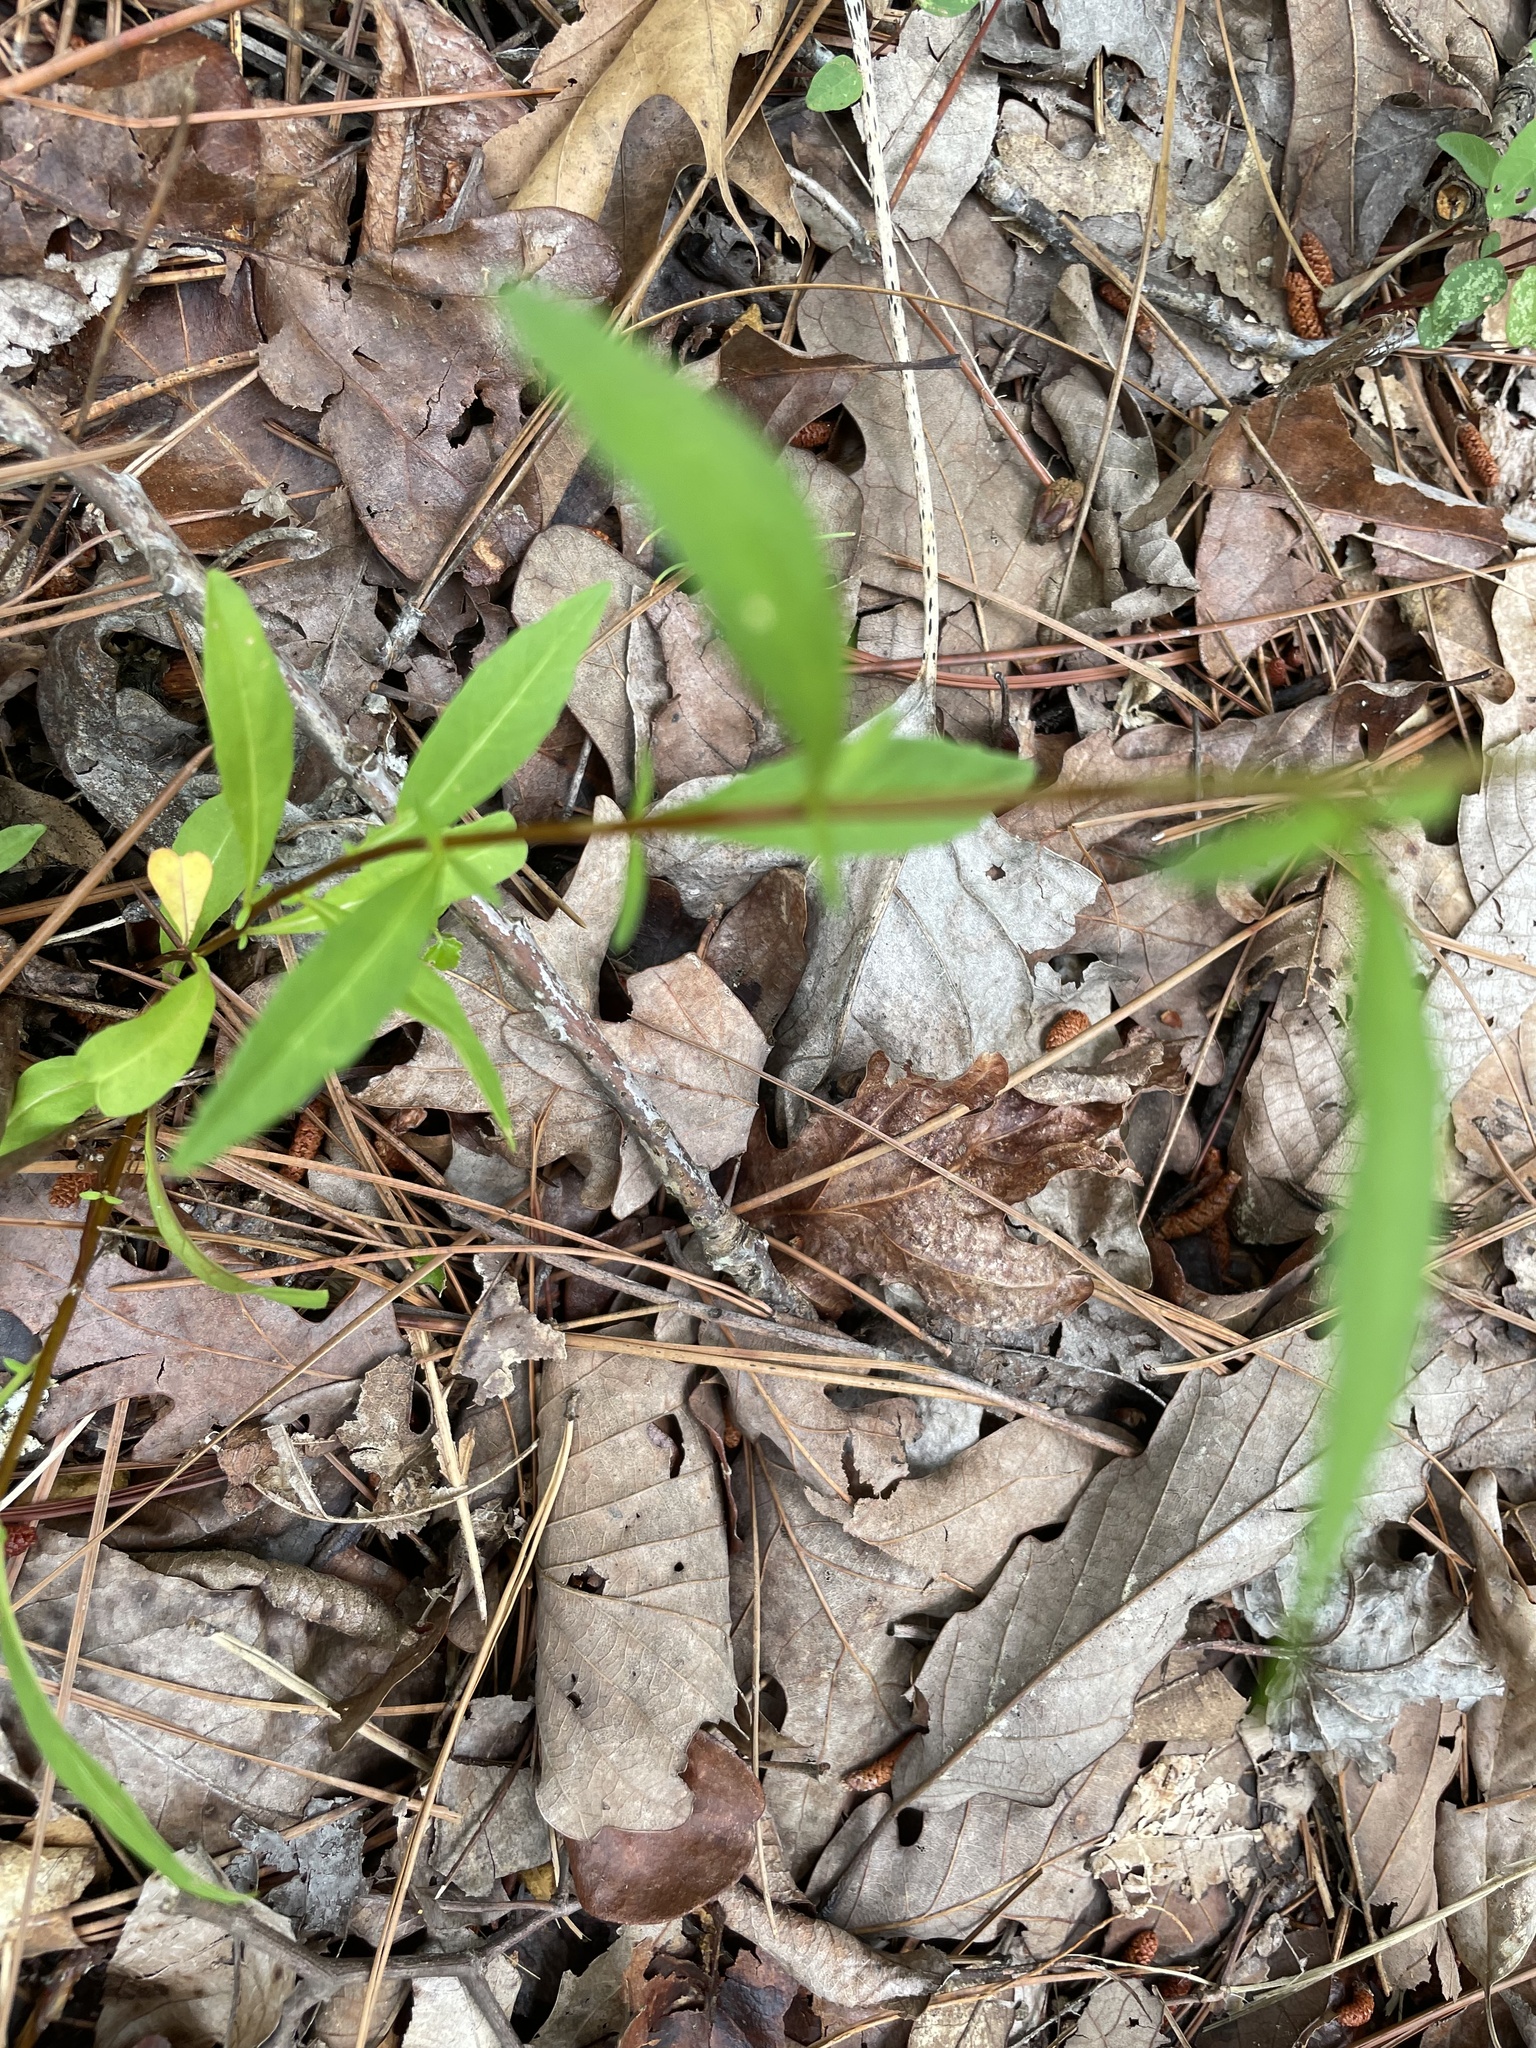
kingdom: Plantae
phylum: Tracheophyta
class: Magnoliopsida
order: Asterales
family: Asteraceae
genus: Eupatorium
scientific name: Eupatorium torreyanum
